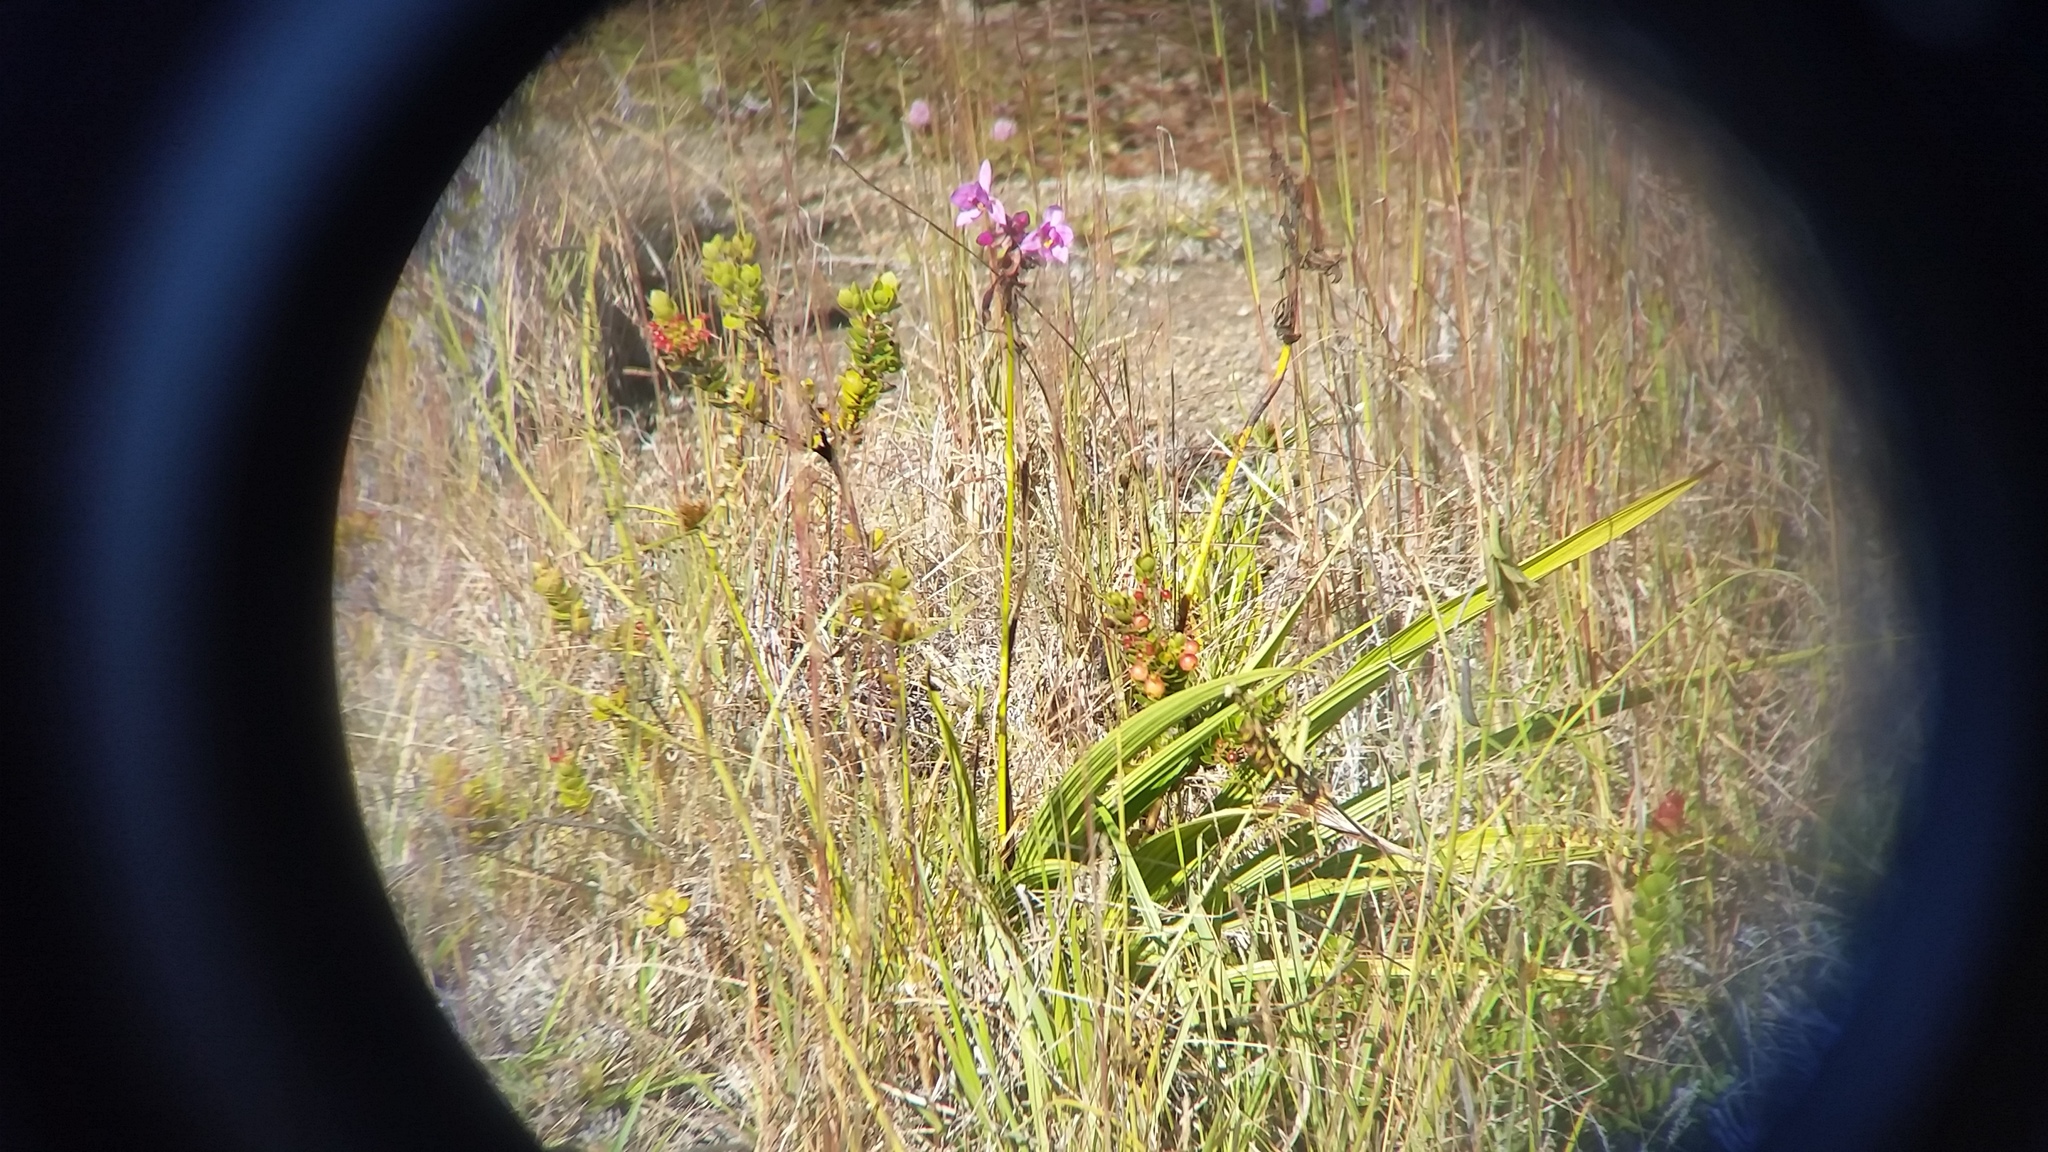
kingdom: Plantae
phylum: Tracheophyta
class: Liliopsida
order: Asparagales
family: Orchidaceae
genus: Spathoglottis
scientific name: Spathoglottis plicata
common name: Philippine ground orchid
